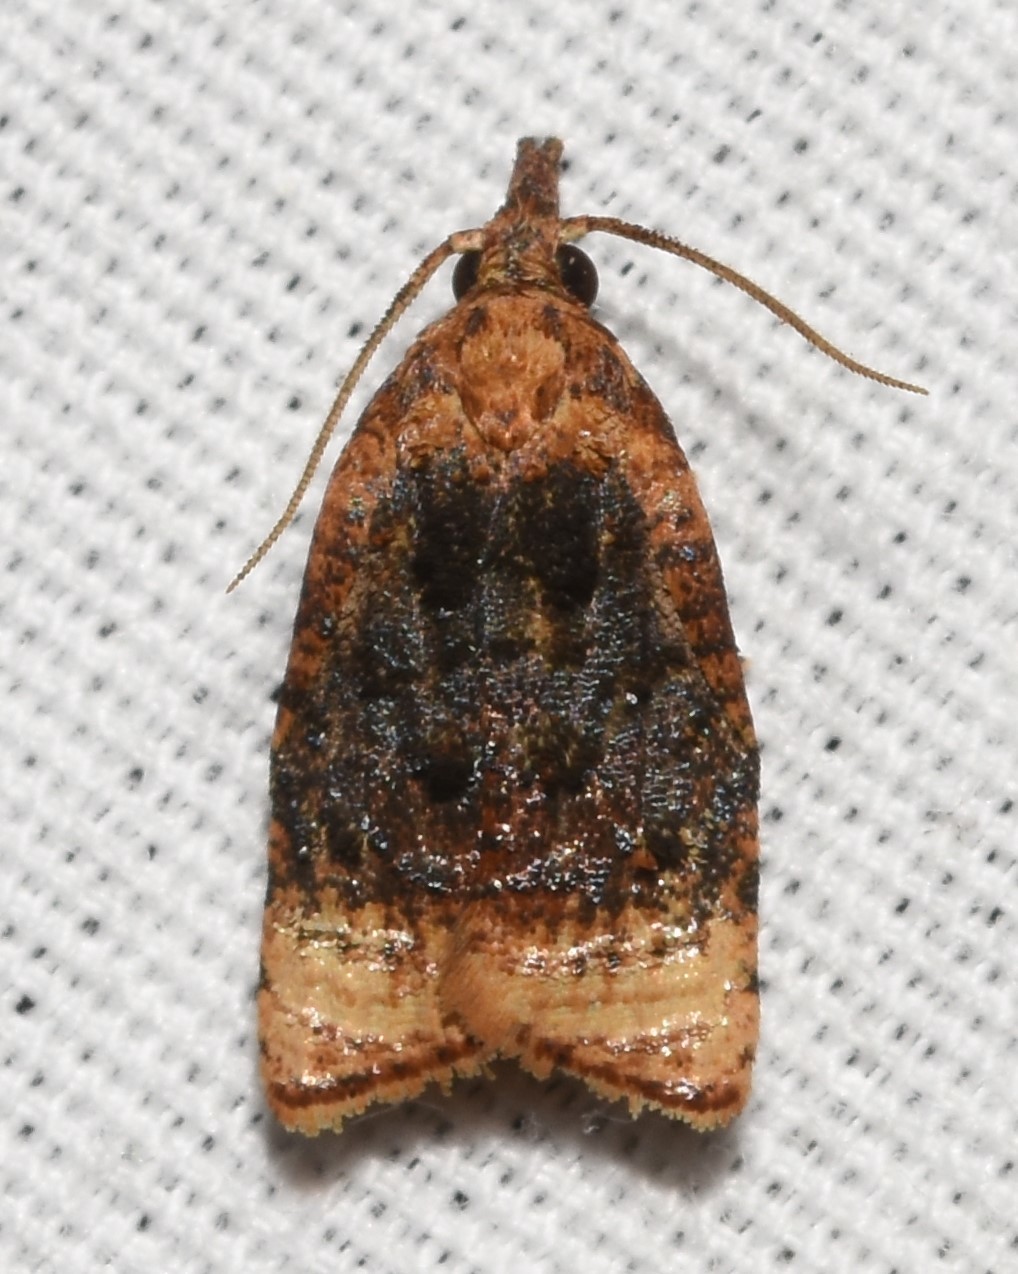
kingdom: Animalia
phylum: Arthropoda
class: Insecta
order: Lepidoptera
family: Tortricidae
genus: Platynota
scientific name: Platynota flavedana
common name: Black-shaded platynota moth
